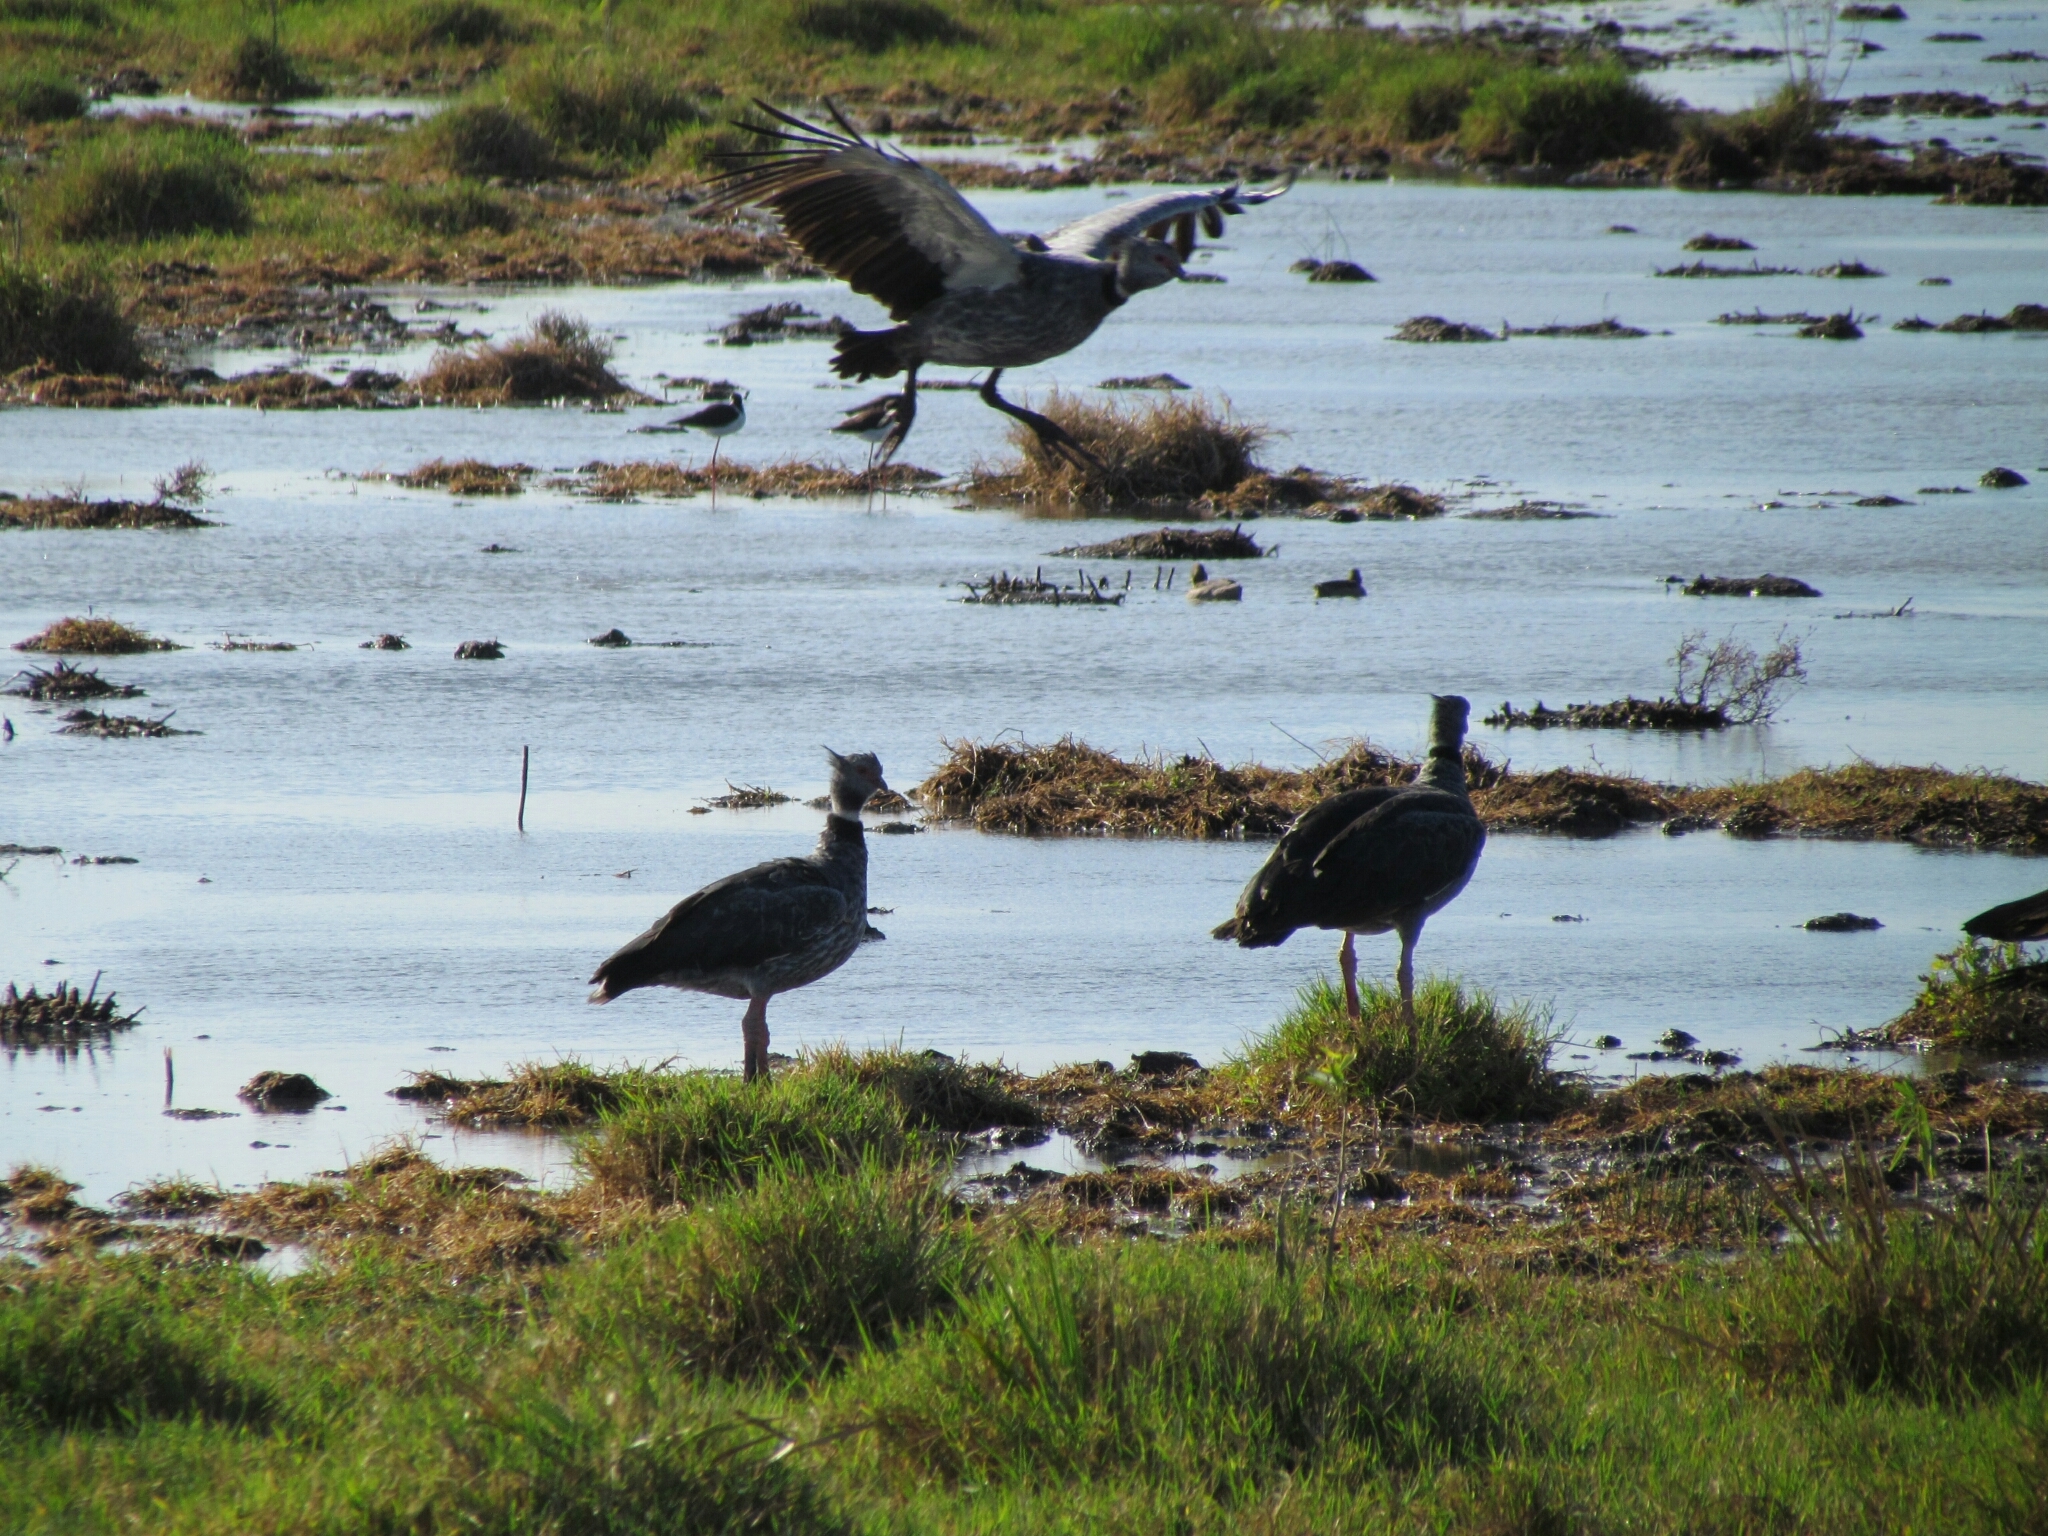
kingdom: Animalia
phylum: Chordata
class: Aves
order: Anseriformes
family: Anhimidae
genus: Chauna
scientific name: Chauna torquata
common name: Southern screamer
